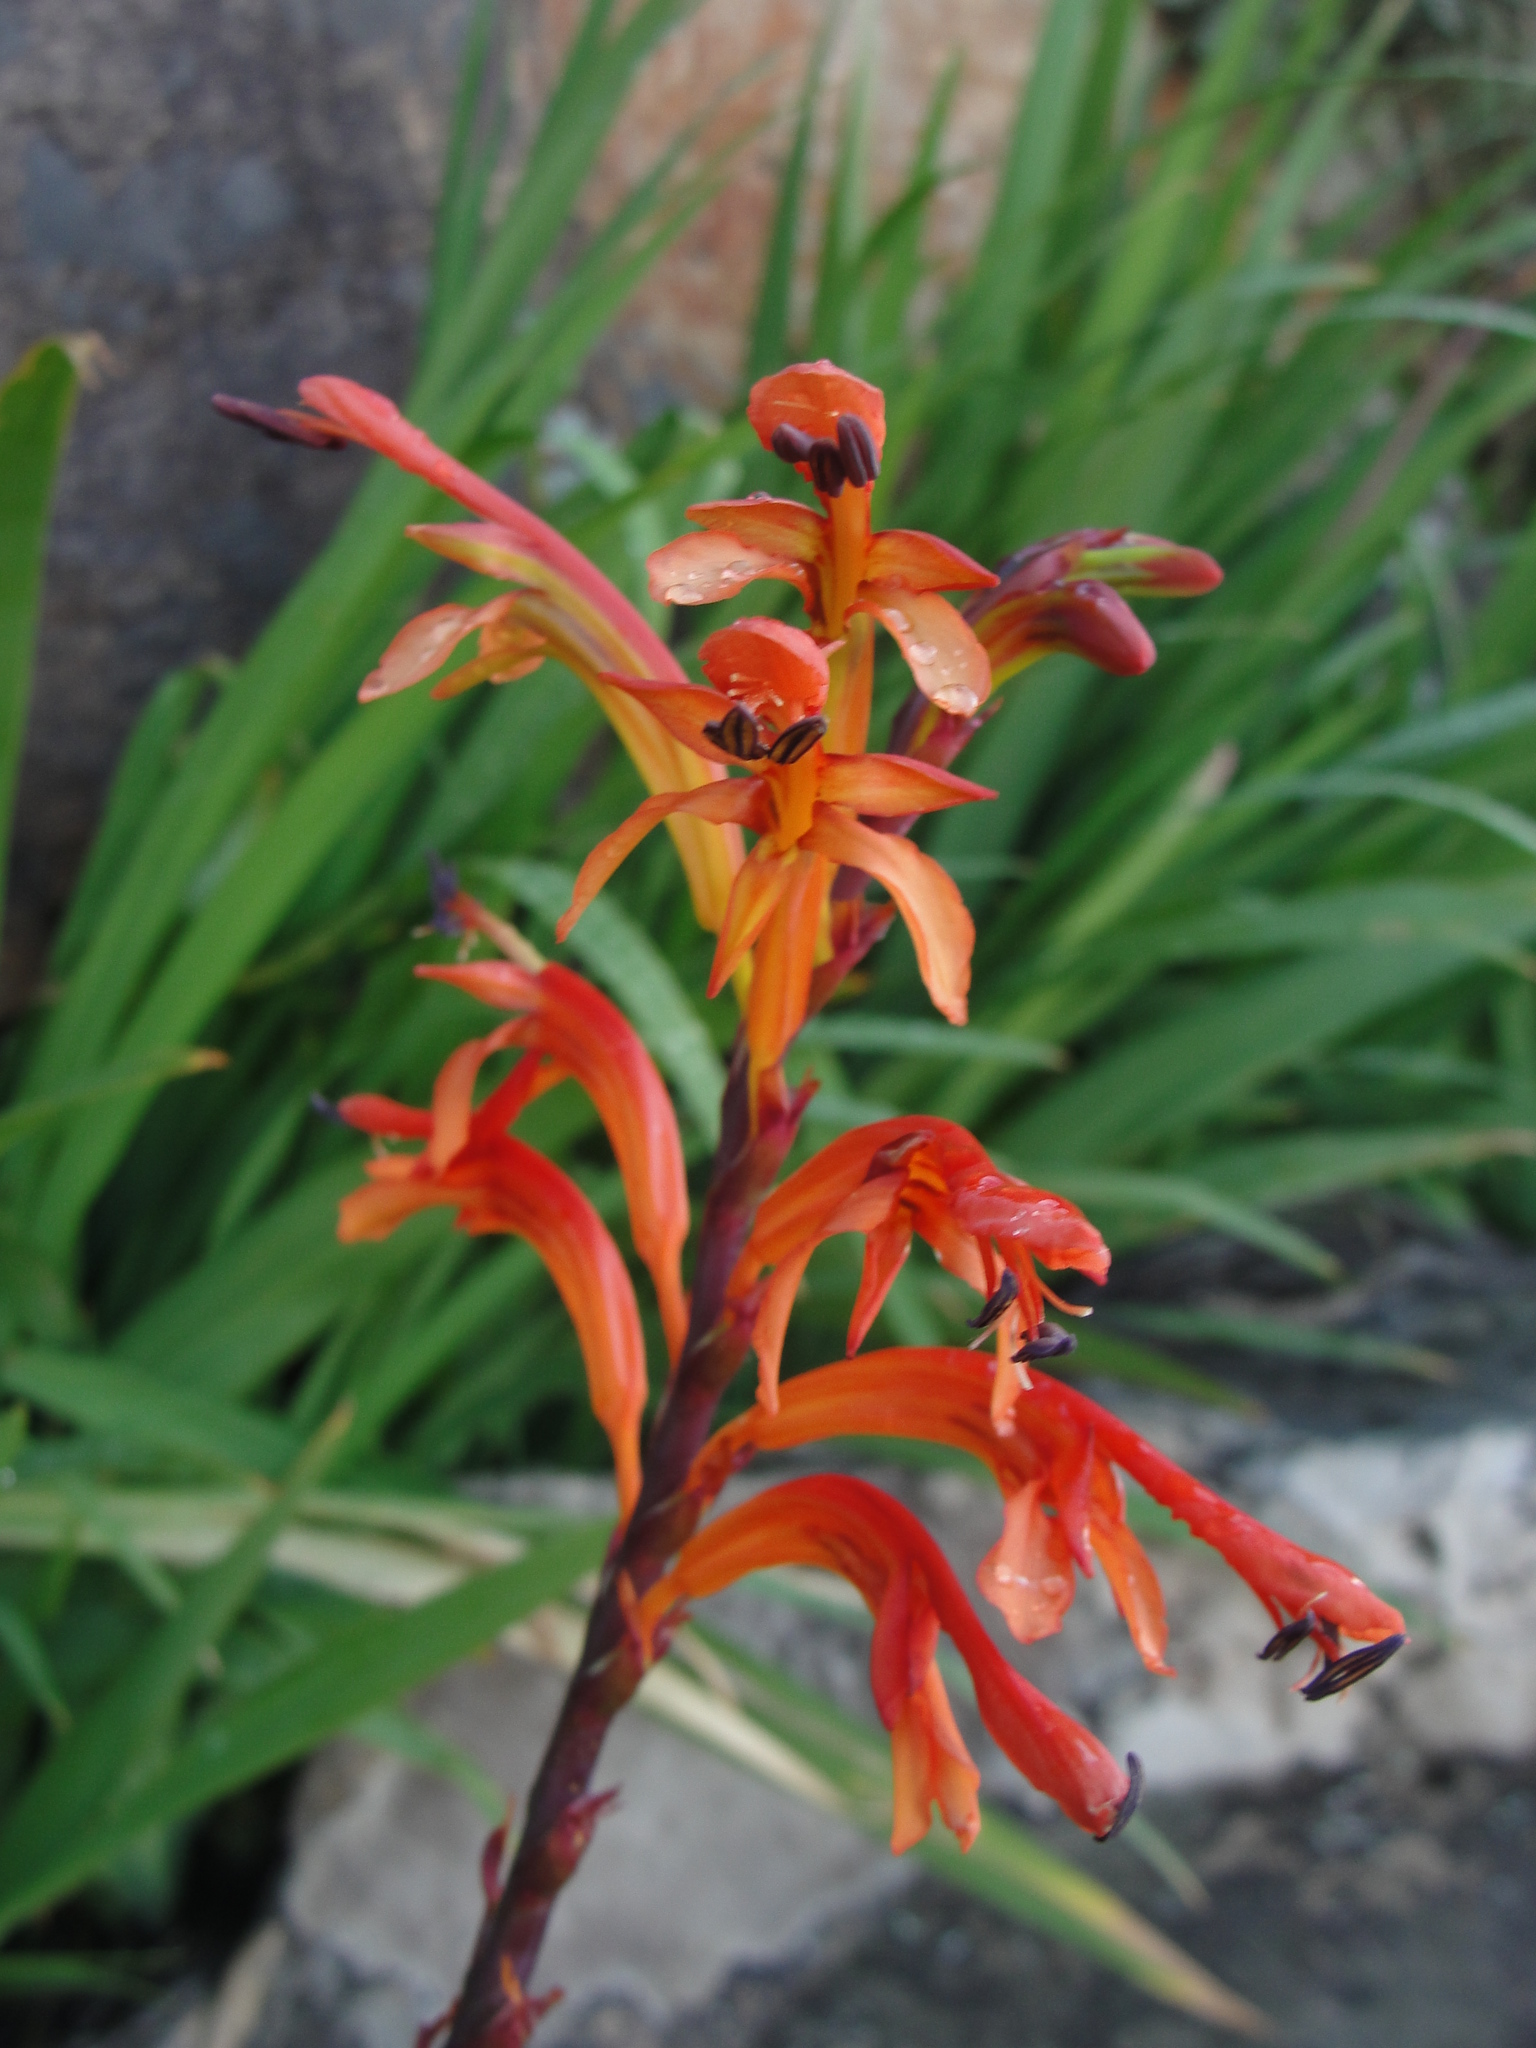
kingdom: Plantae
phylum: Tracheophyta
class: Liliopsida
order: Asparagales
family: Iridaceae
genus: Chasmanthe
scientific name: Chasmanthe aethiopica
